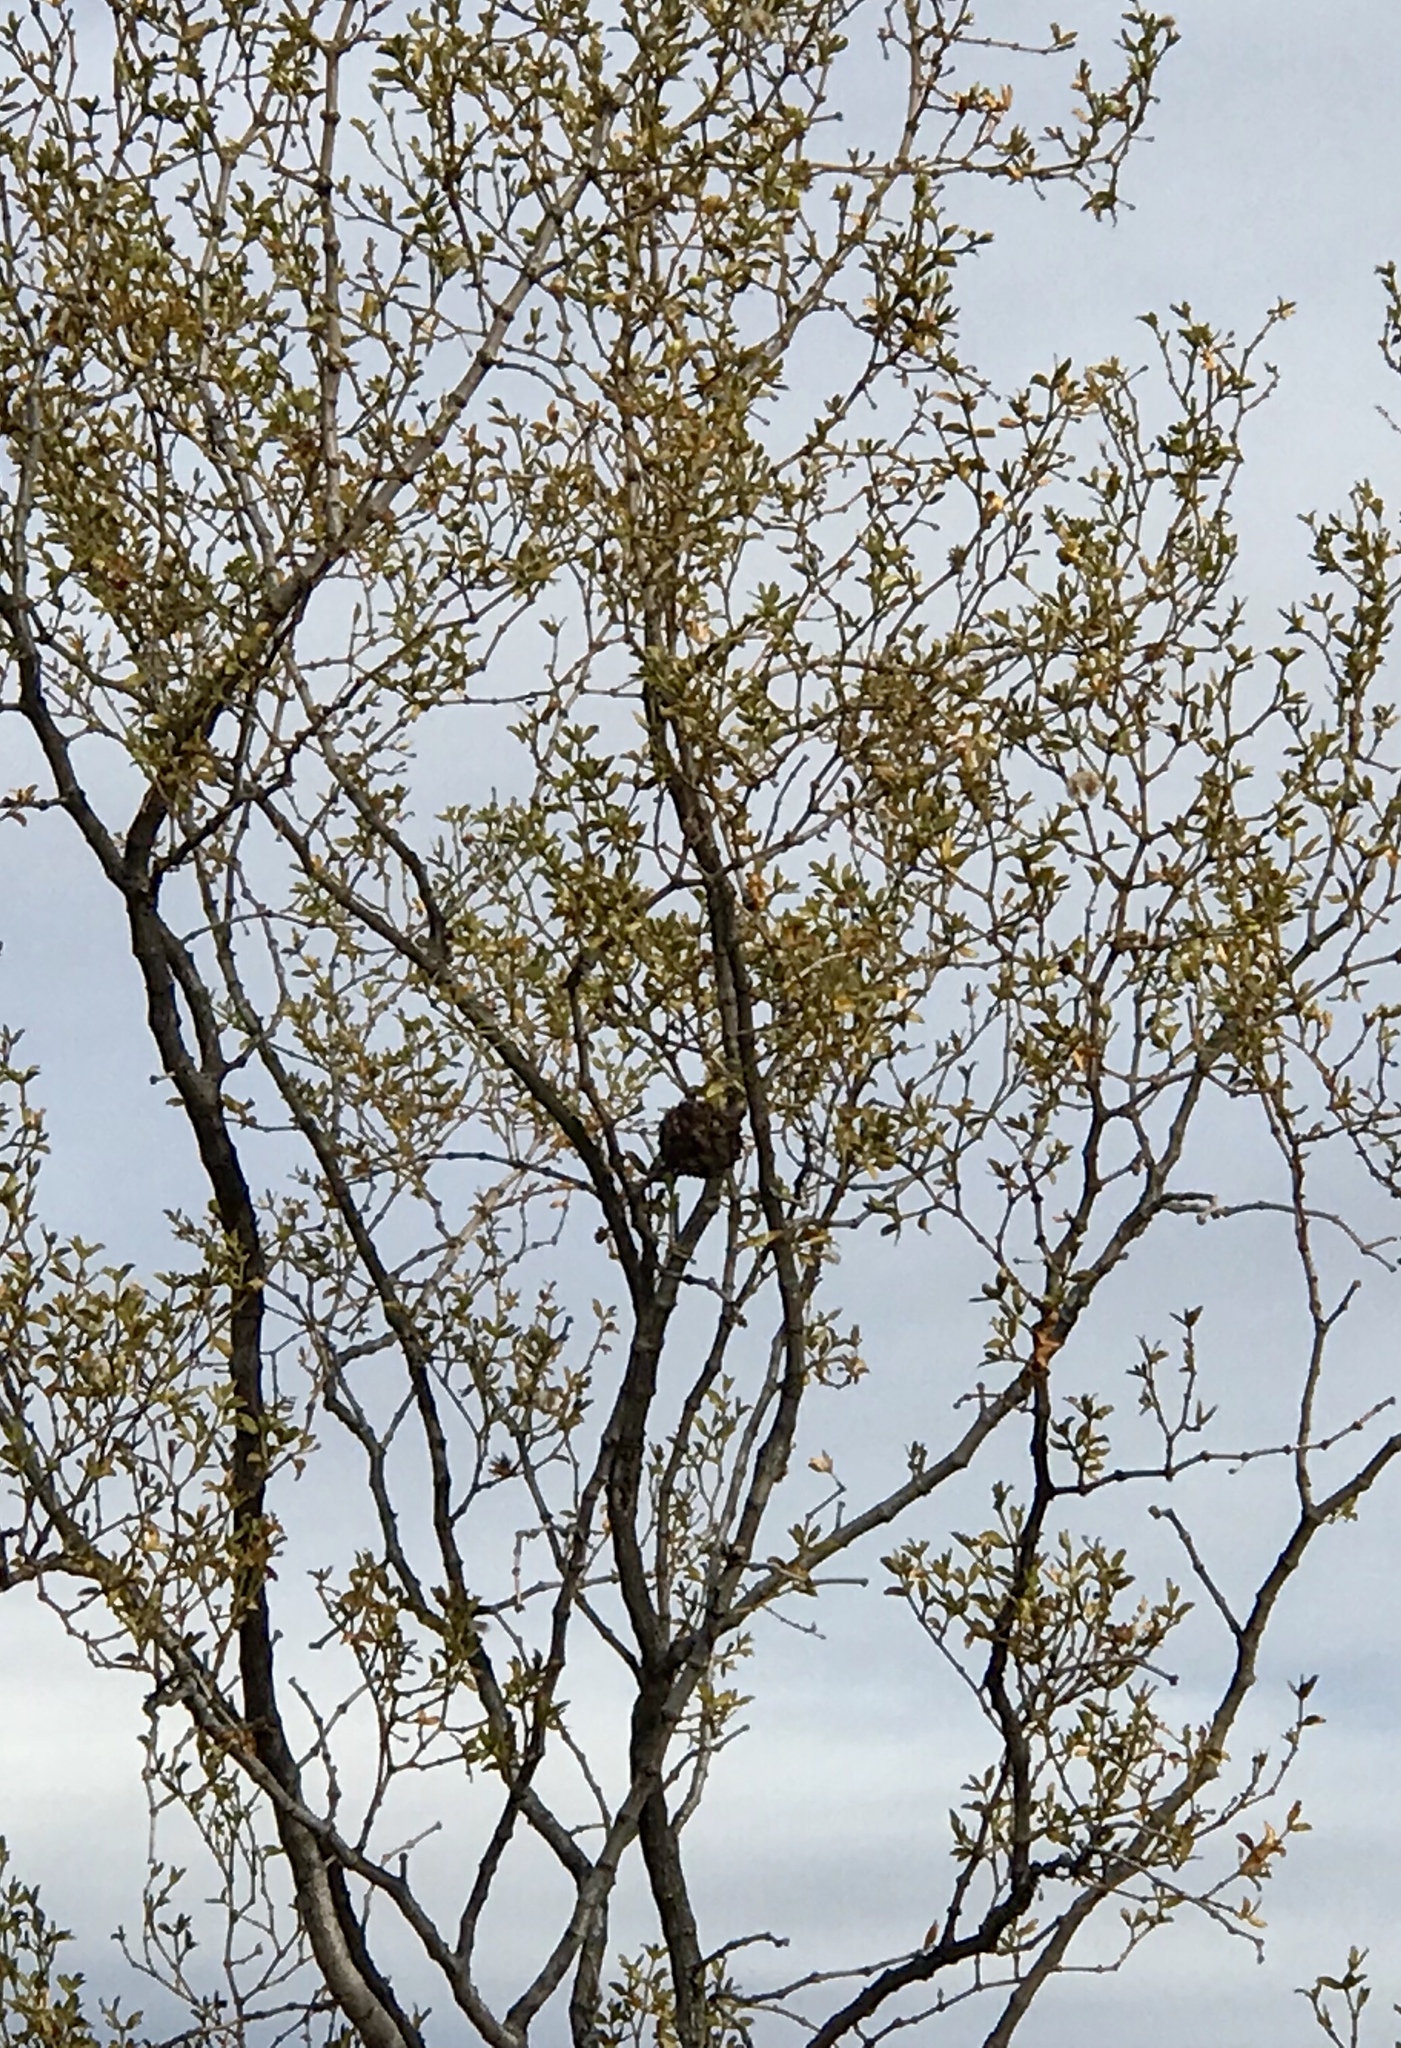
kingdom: Animalia
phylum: Arthropoda
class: Insecta
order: Diptera
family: Cecidomyiidae
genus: Asphondylia
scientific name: Asphondylia auripila
